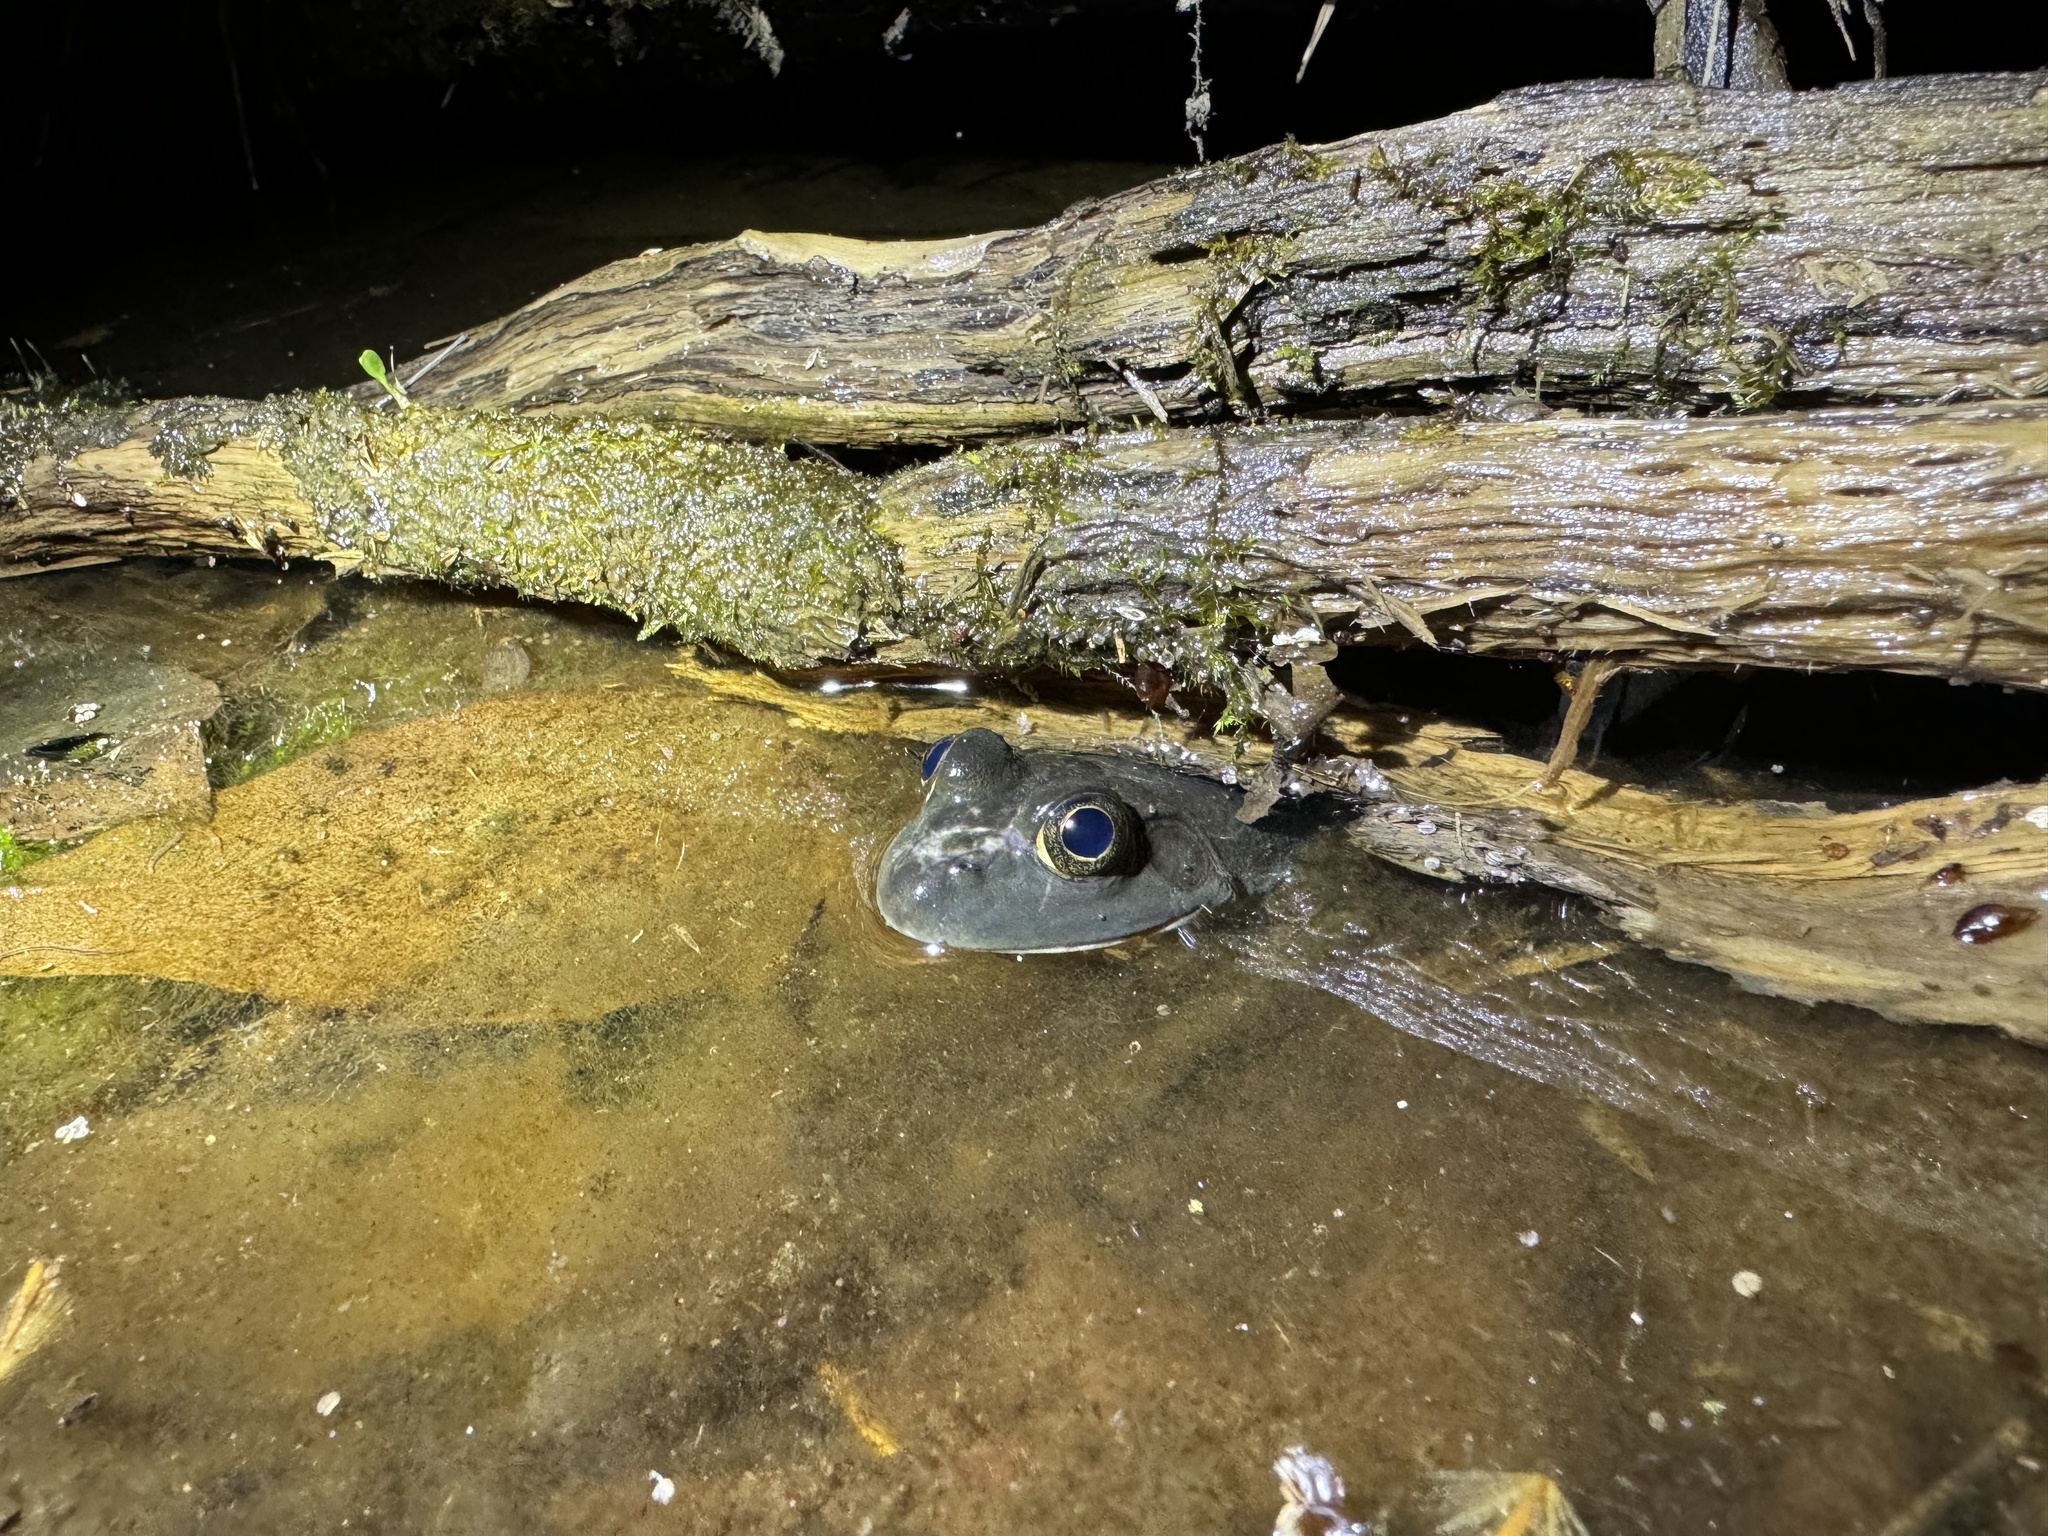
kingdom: Animalia
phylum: Chordata
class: Amphibia
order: Anura
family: Ranidae
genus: Lithobates
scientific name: Lithobates catesbeianus
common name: American bullfrog
